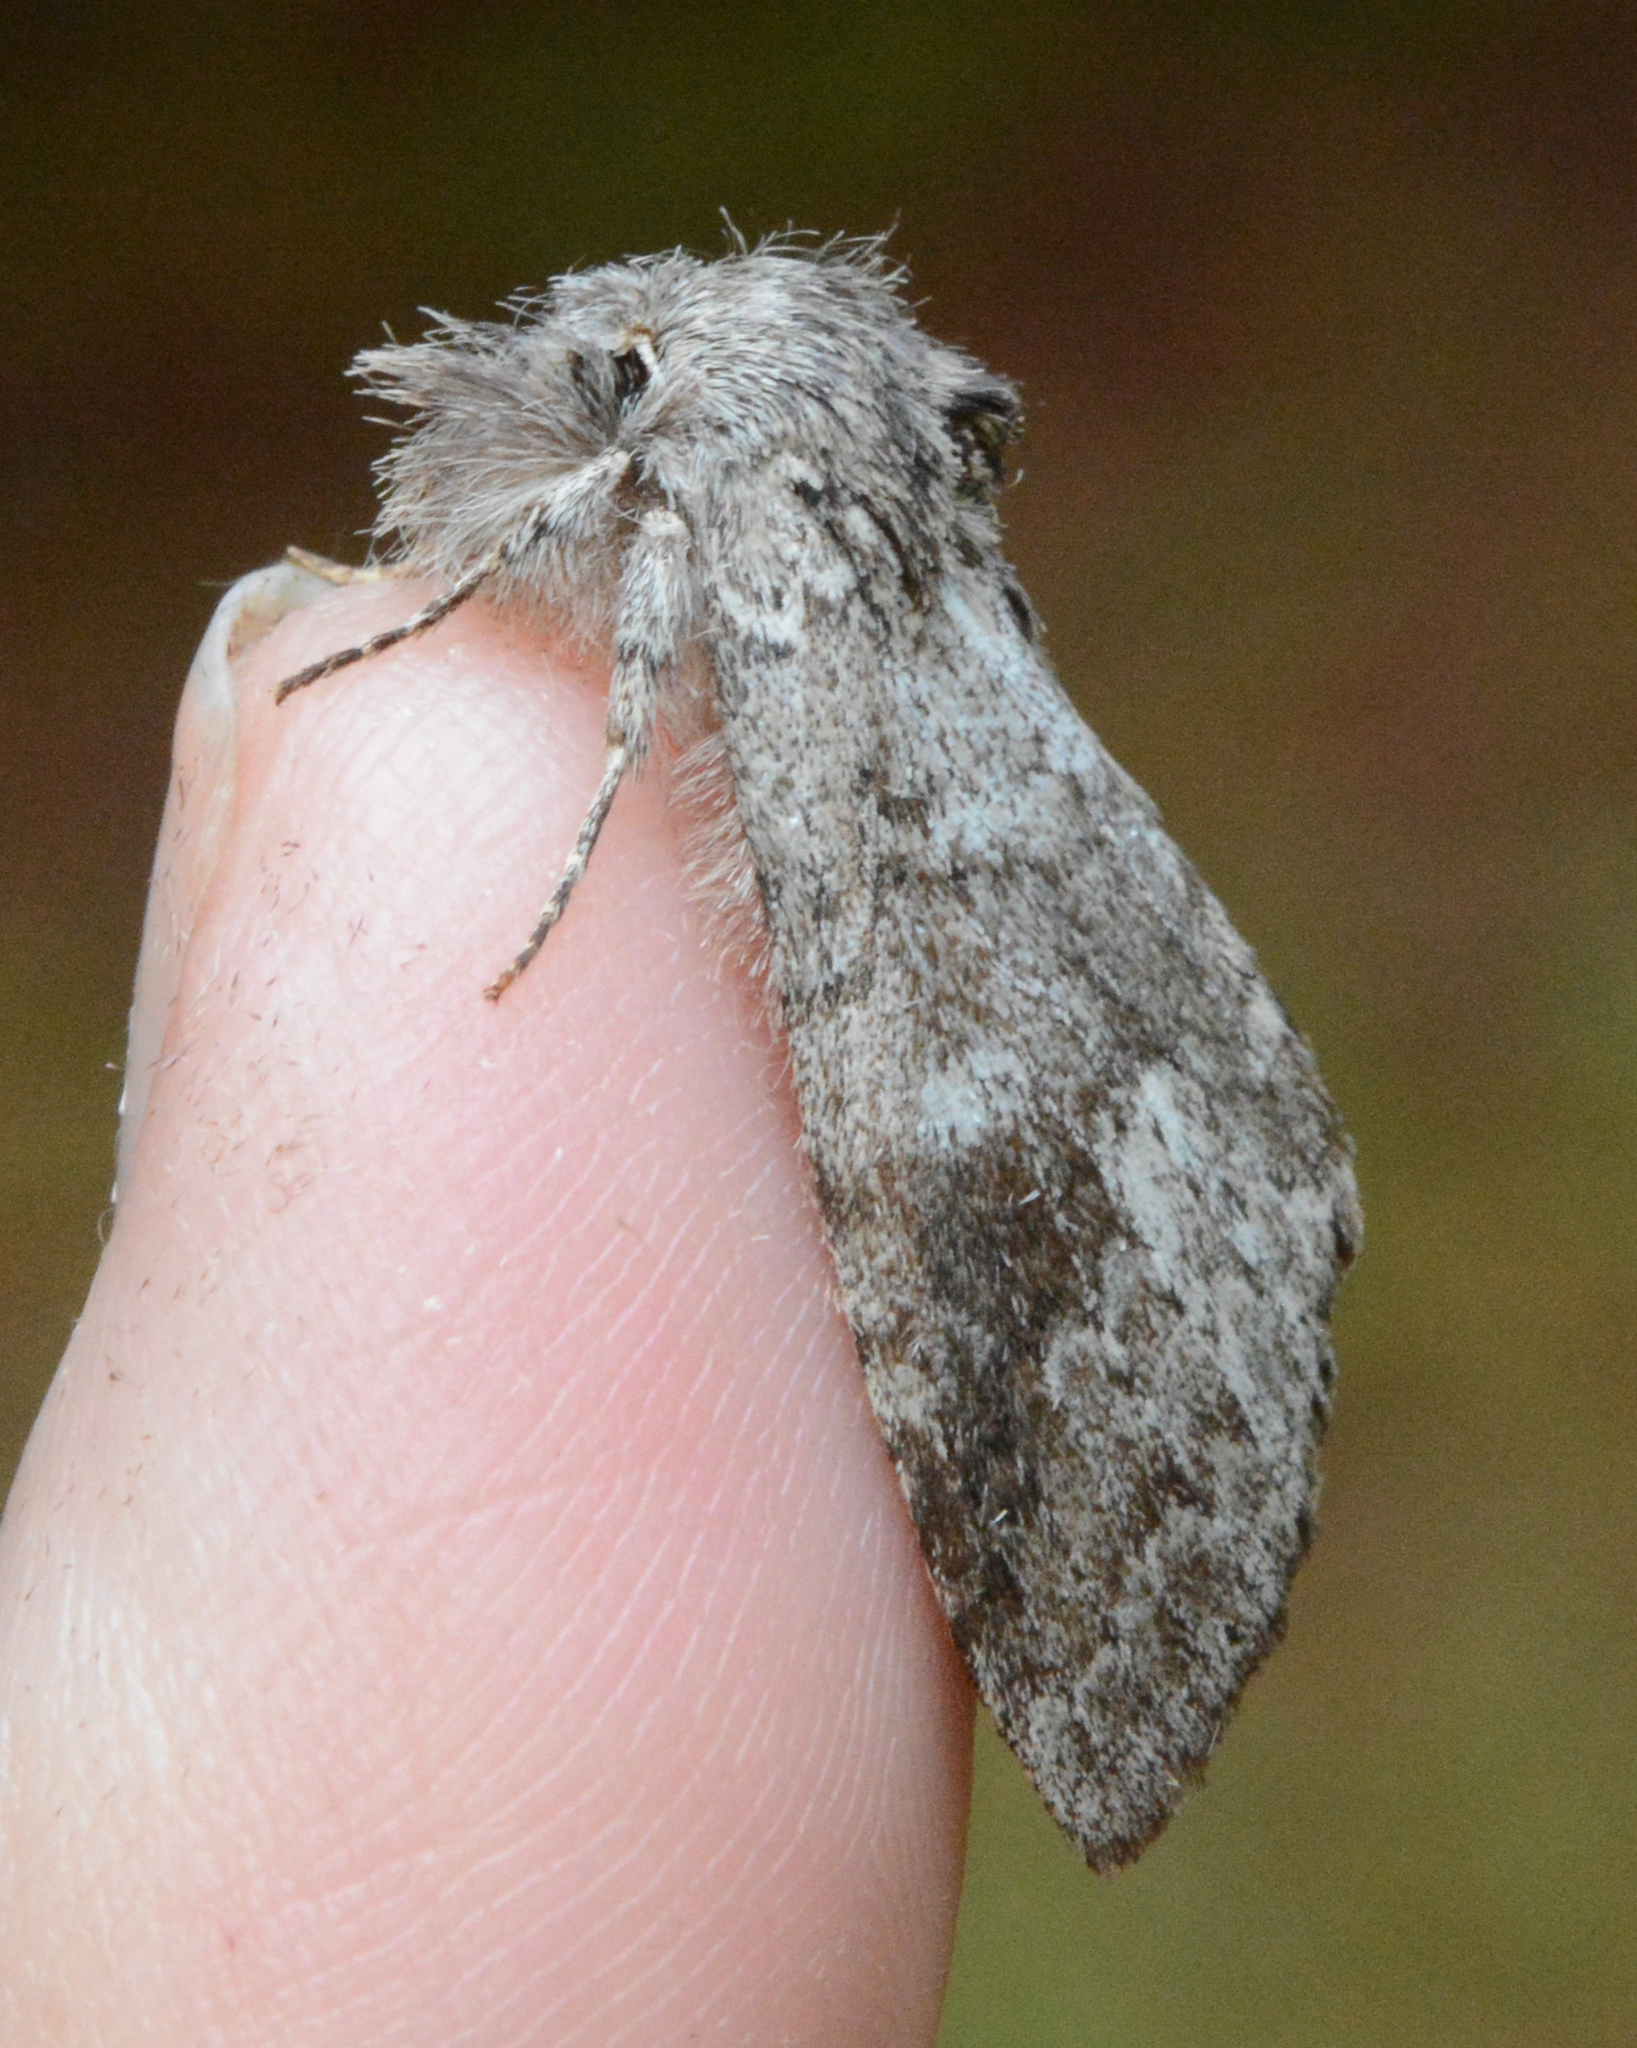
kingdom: Animalia
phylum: Arthropoda
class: Insecta
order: Lepidoptera
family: Notodontidae
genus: Lochmaeus
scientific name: Lochmaeus manteo
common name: Variable oakleaf caterpillar moth
